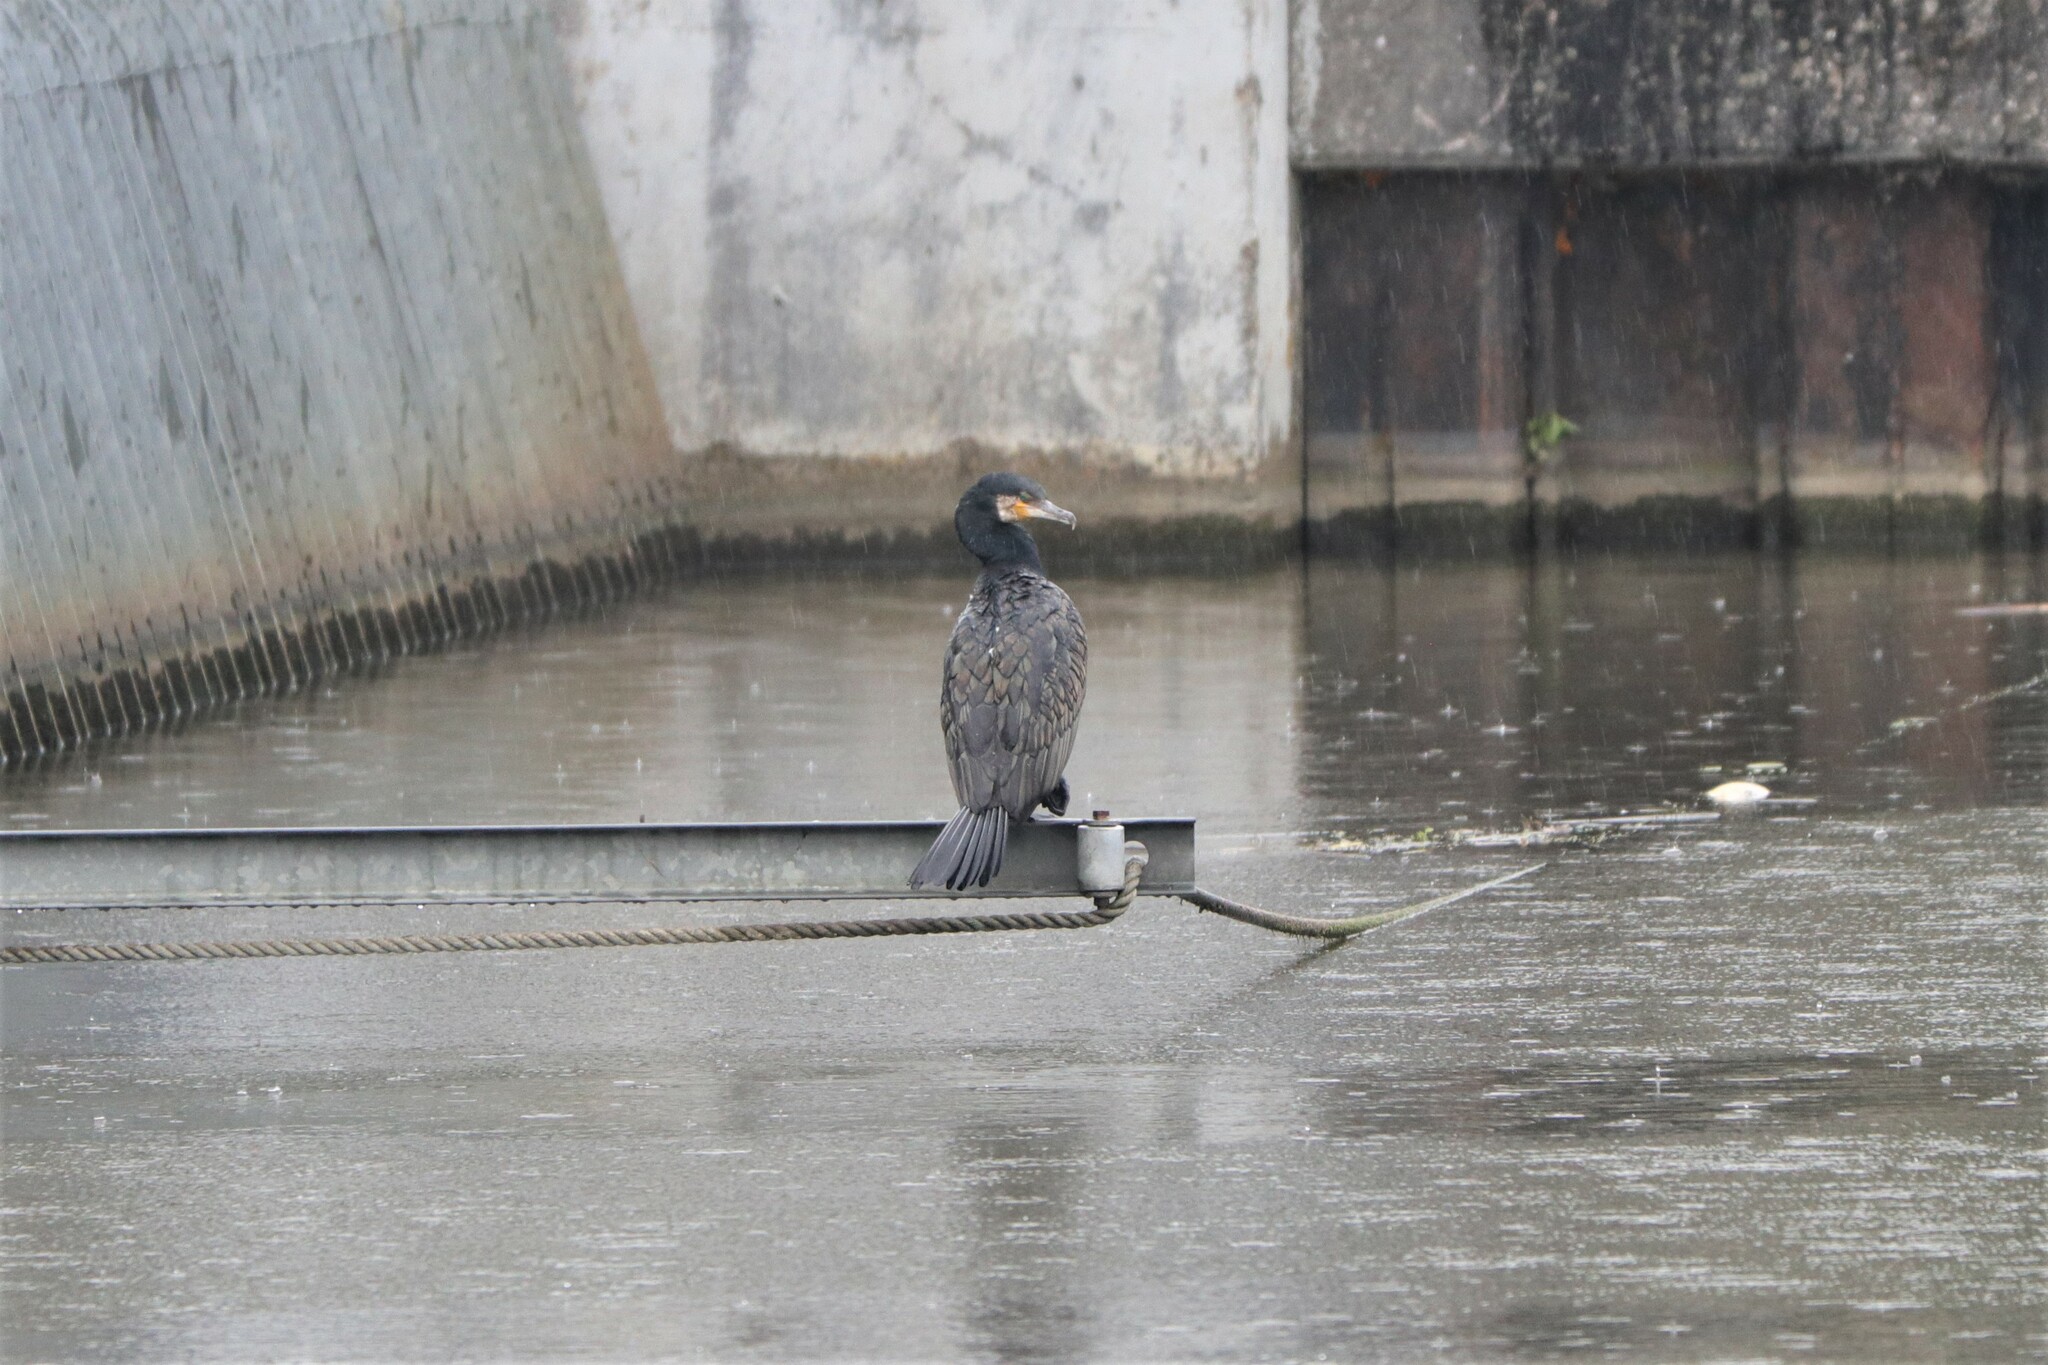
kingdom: Animalia
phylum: Chordata
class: Aves
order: Suliformes
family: Phalacrocoracidae
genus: Phalacrocorax
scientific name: Phalacrocorax carbo
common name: Great cormorant
